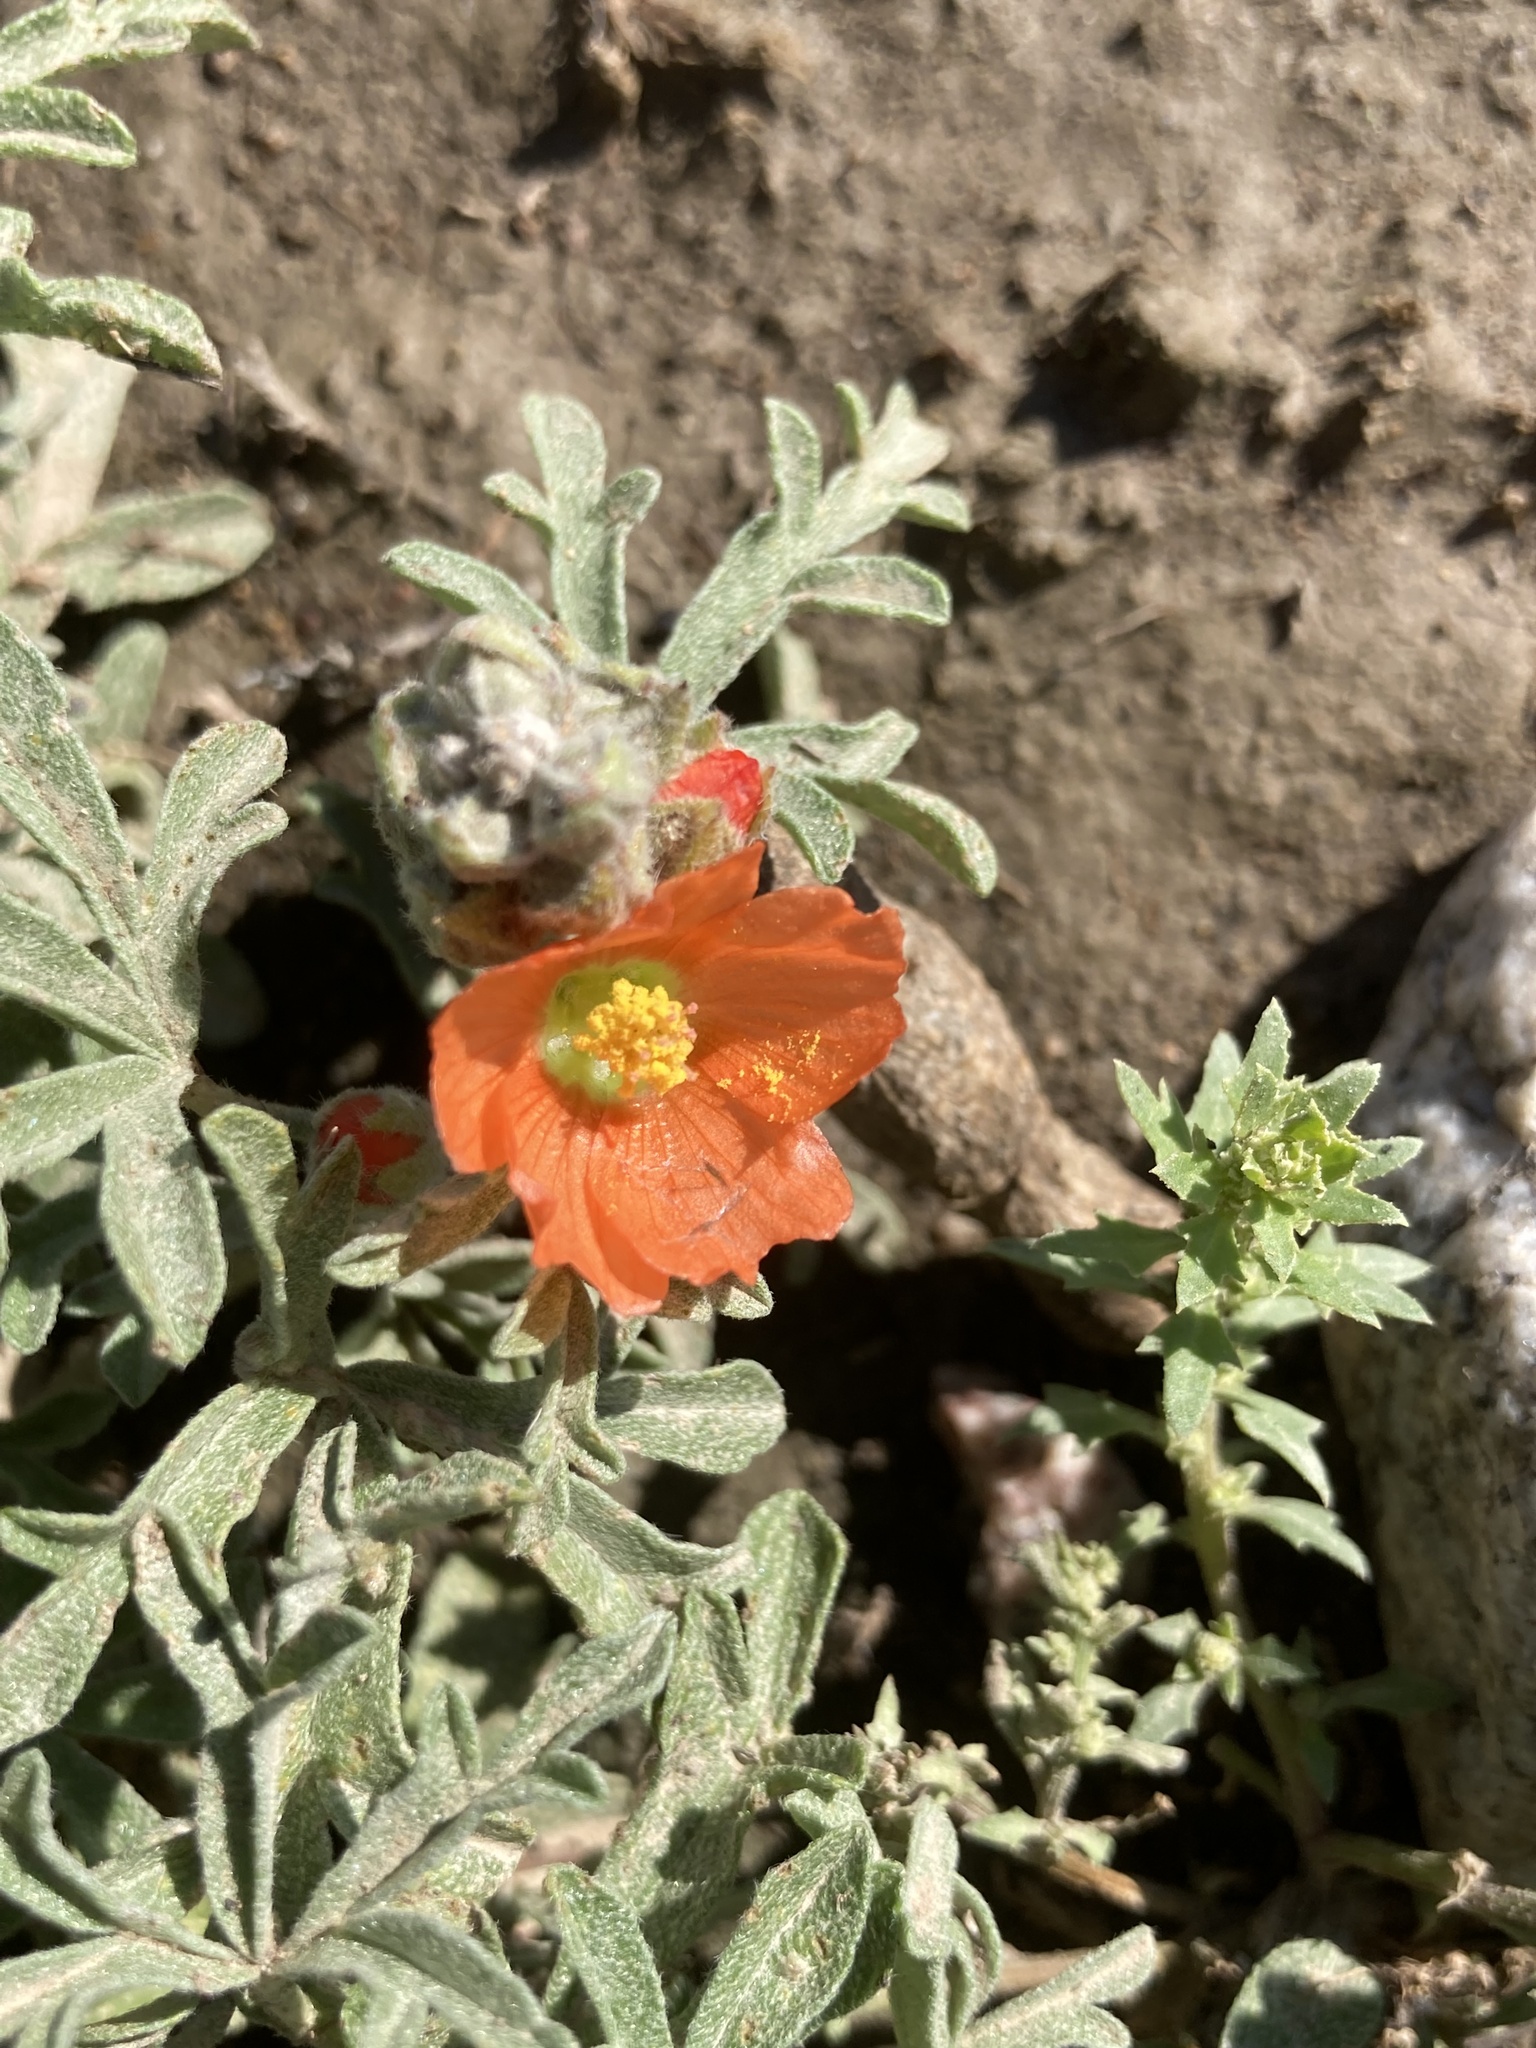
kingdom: Plantae
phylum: Tracheophyta
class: Magnoliopsida
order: Malvales
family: Malvaceae
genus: Sphaeralcea
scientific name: Sphaeralcea coccinea
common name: Moss-rose
